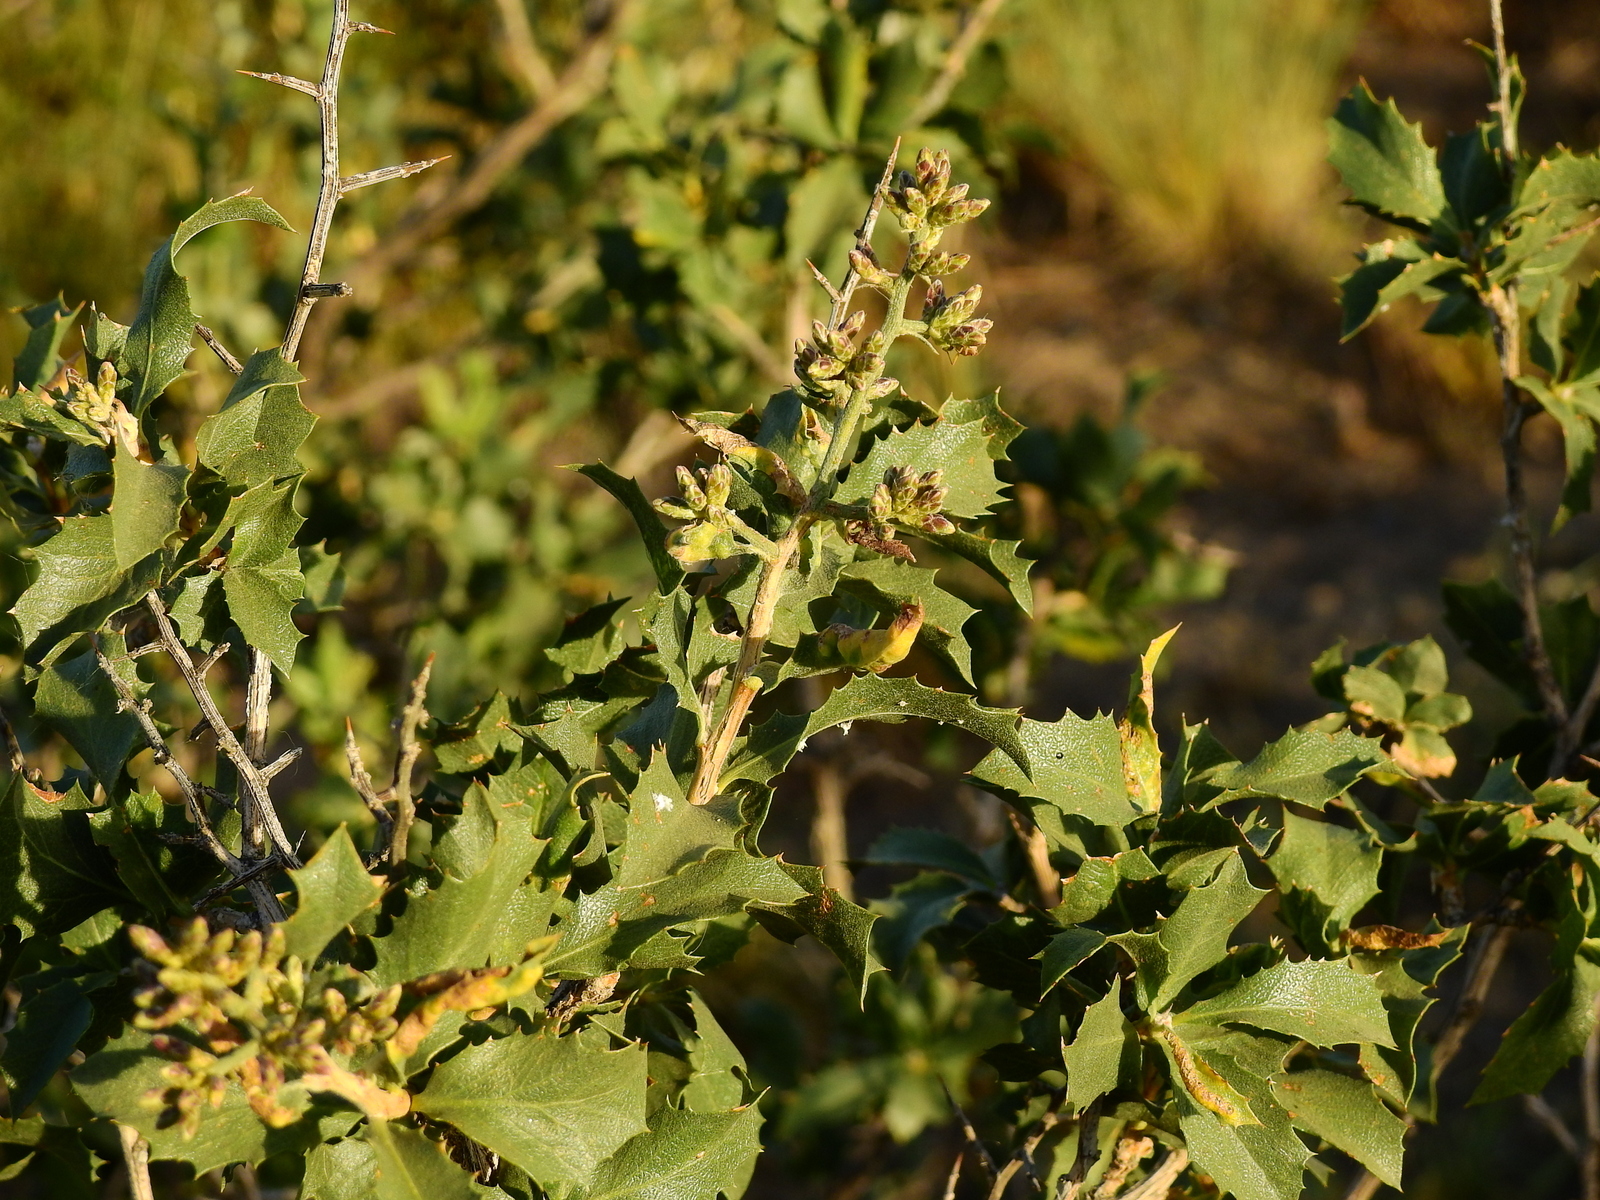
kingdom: Plantae
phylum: Tracheophyta
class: Magnoliopsida
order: Asterales
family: Asteraceae
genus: Proustia
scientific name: Proustia cuneifolia
